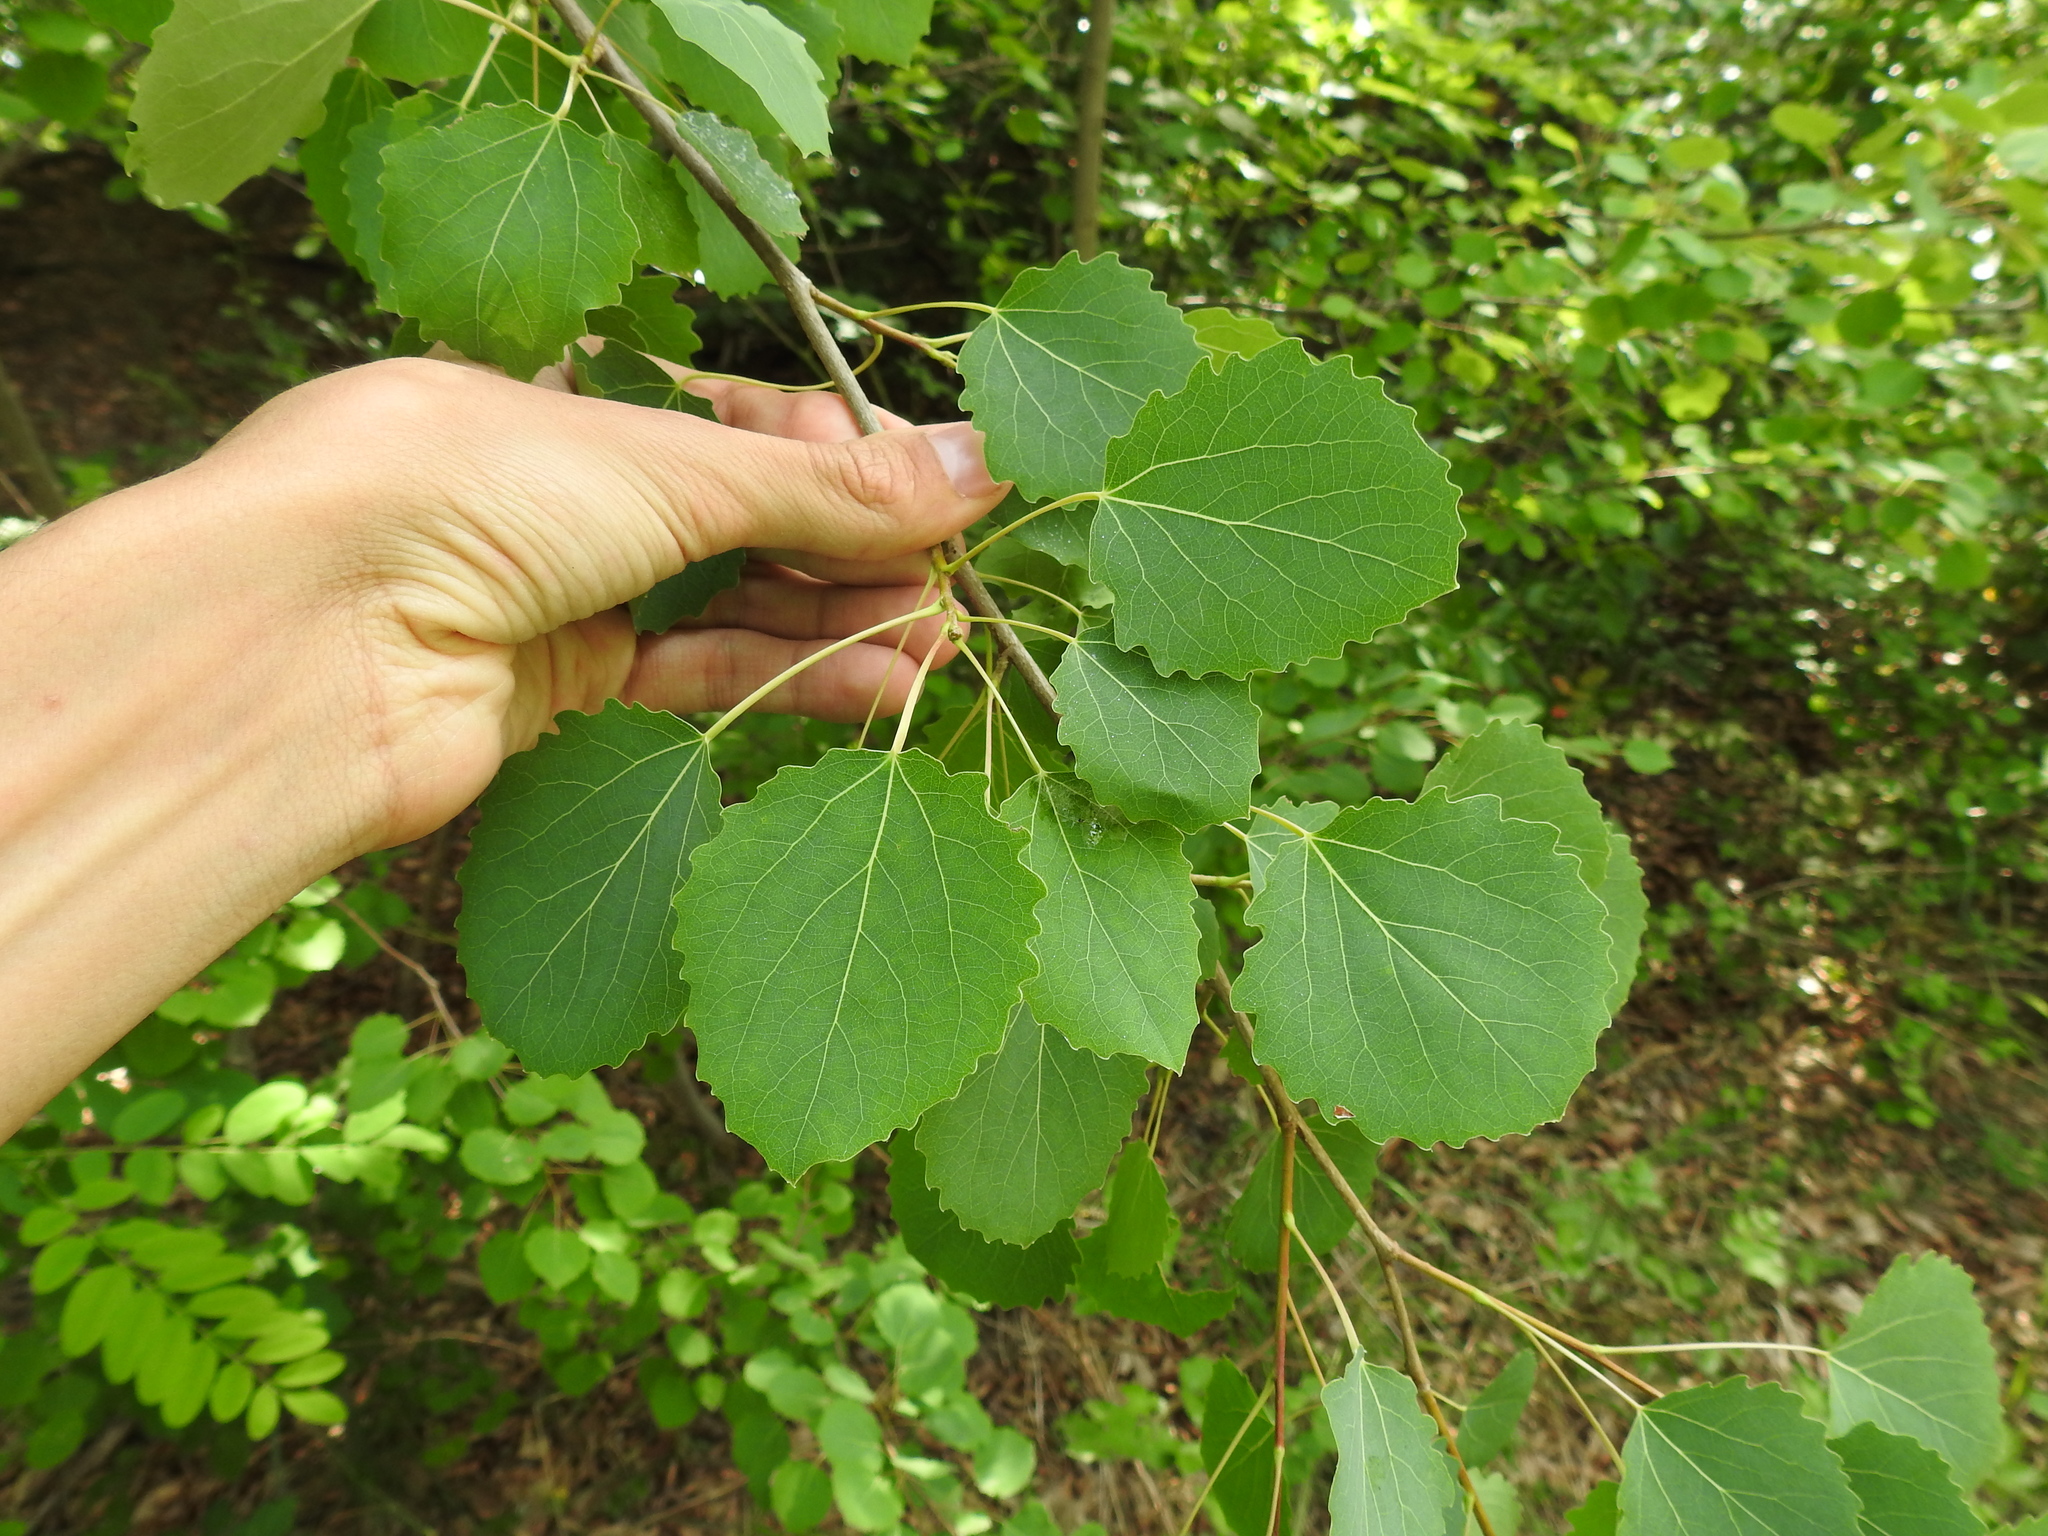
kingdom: Plantae
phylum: Tracheophyta
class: Magnoliopsida
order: Malpighiales
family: Salicaceae
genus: Populus
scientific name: Populus tremula
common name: European aspen
